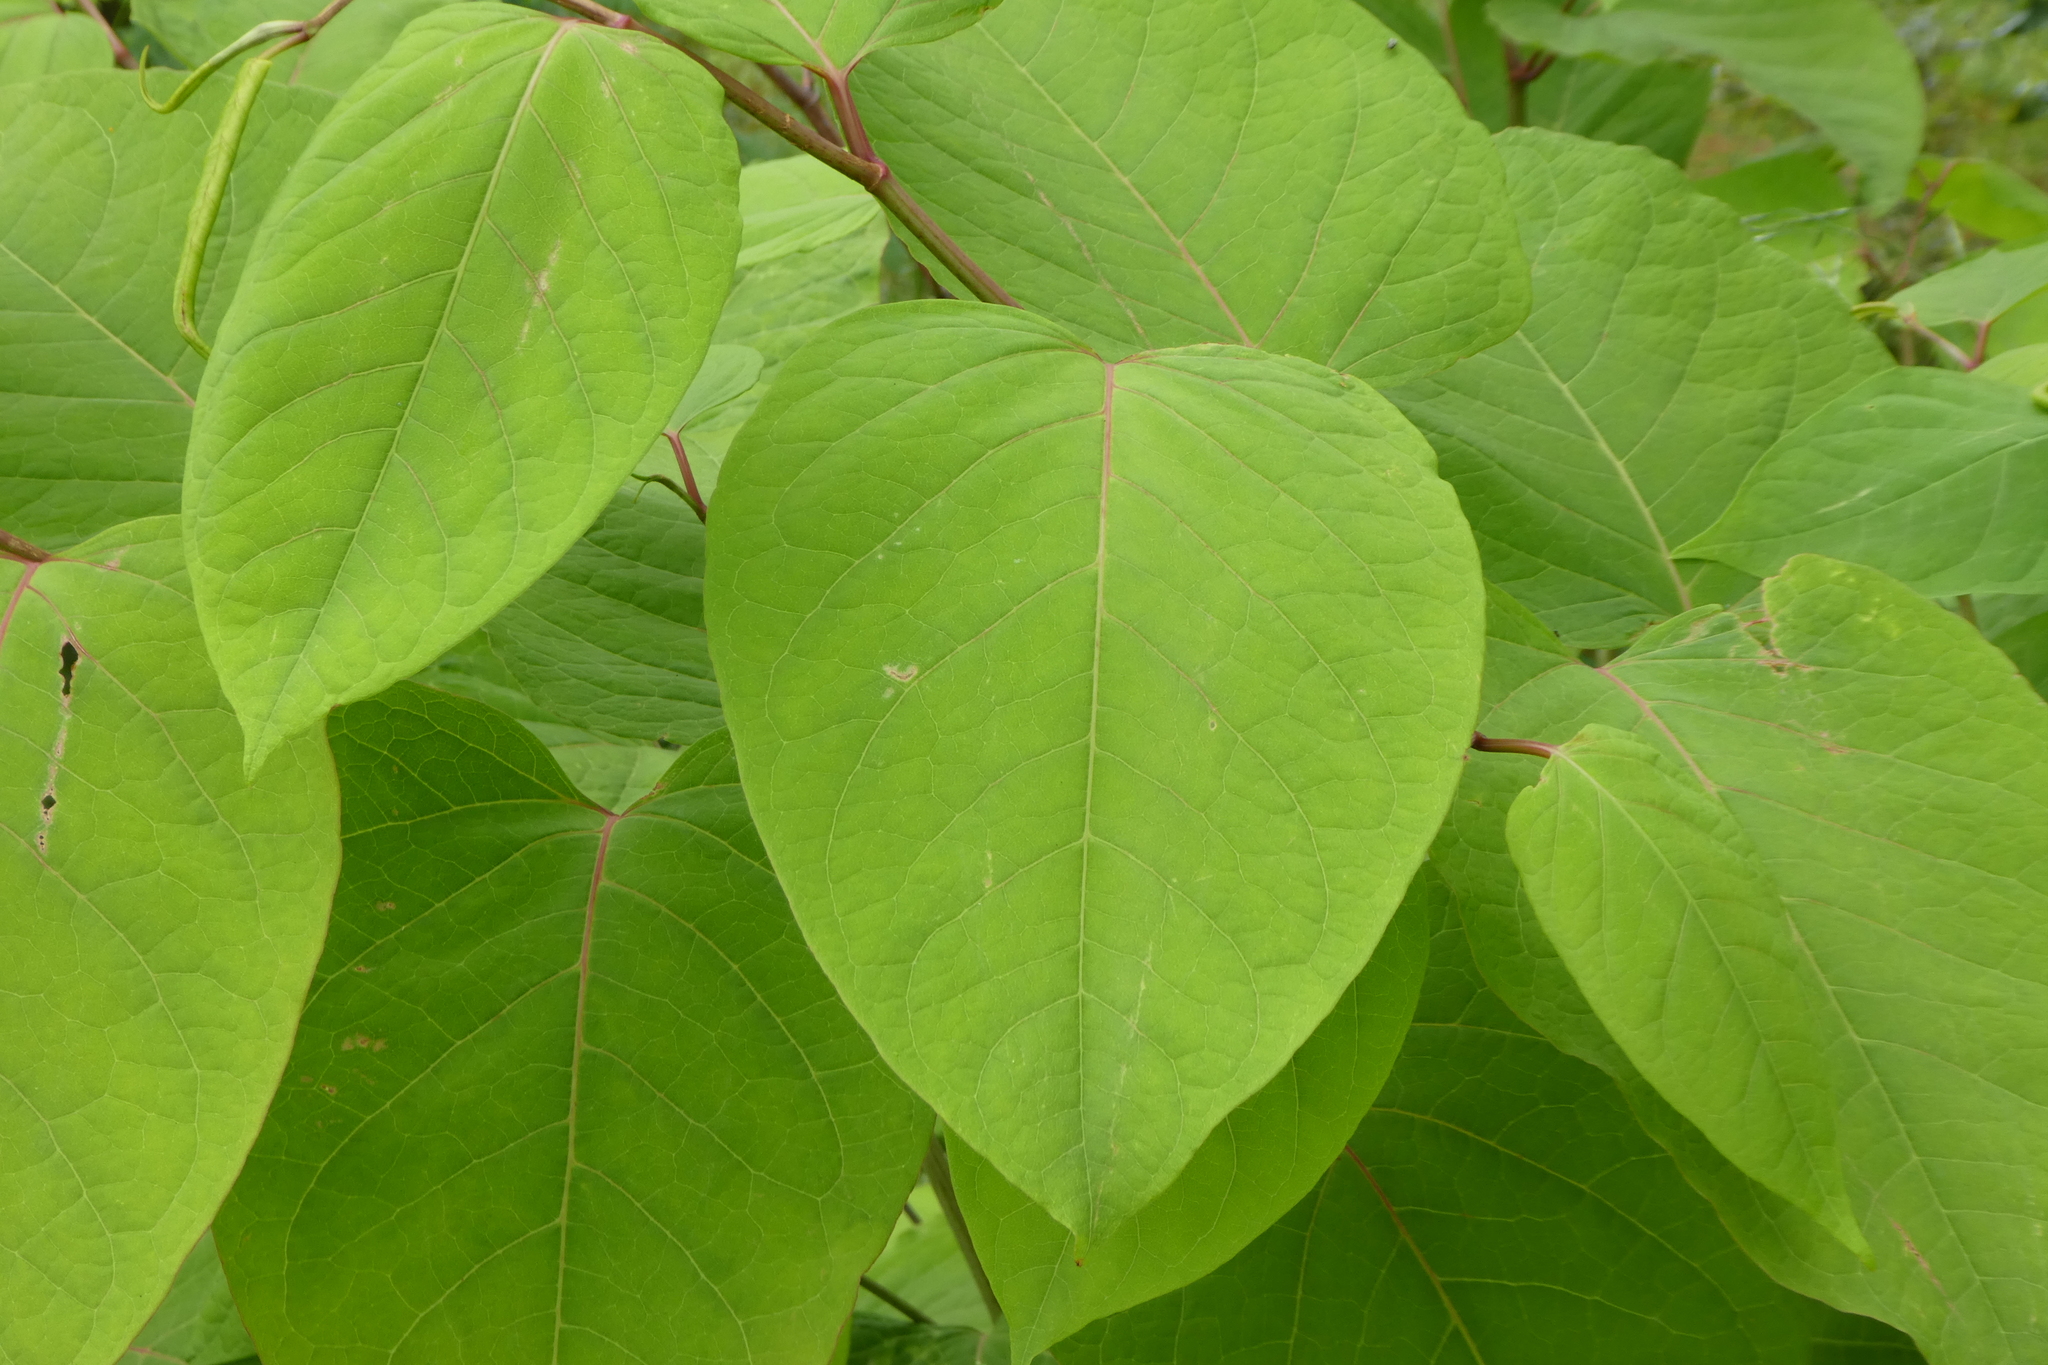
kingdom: Plantae
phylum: Tracheophyta
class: Magnoliopsida
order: Caryophyllales
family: Polygonaceae
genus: Reynoutria
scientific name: Reynoutria japonica
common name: Japanese knotweed
